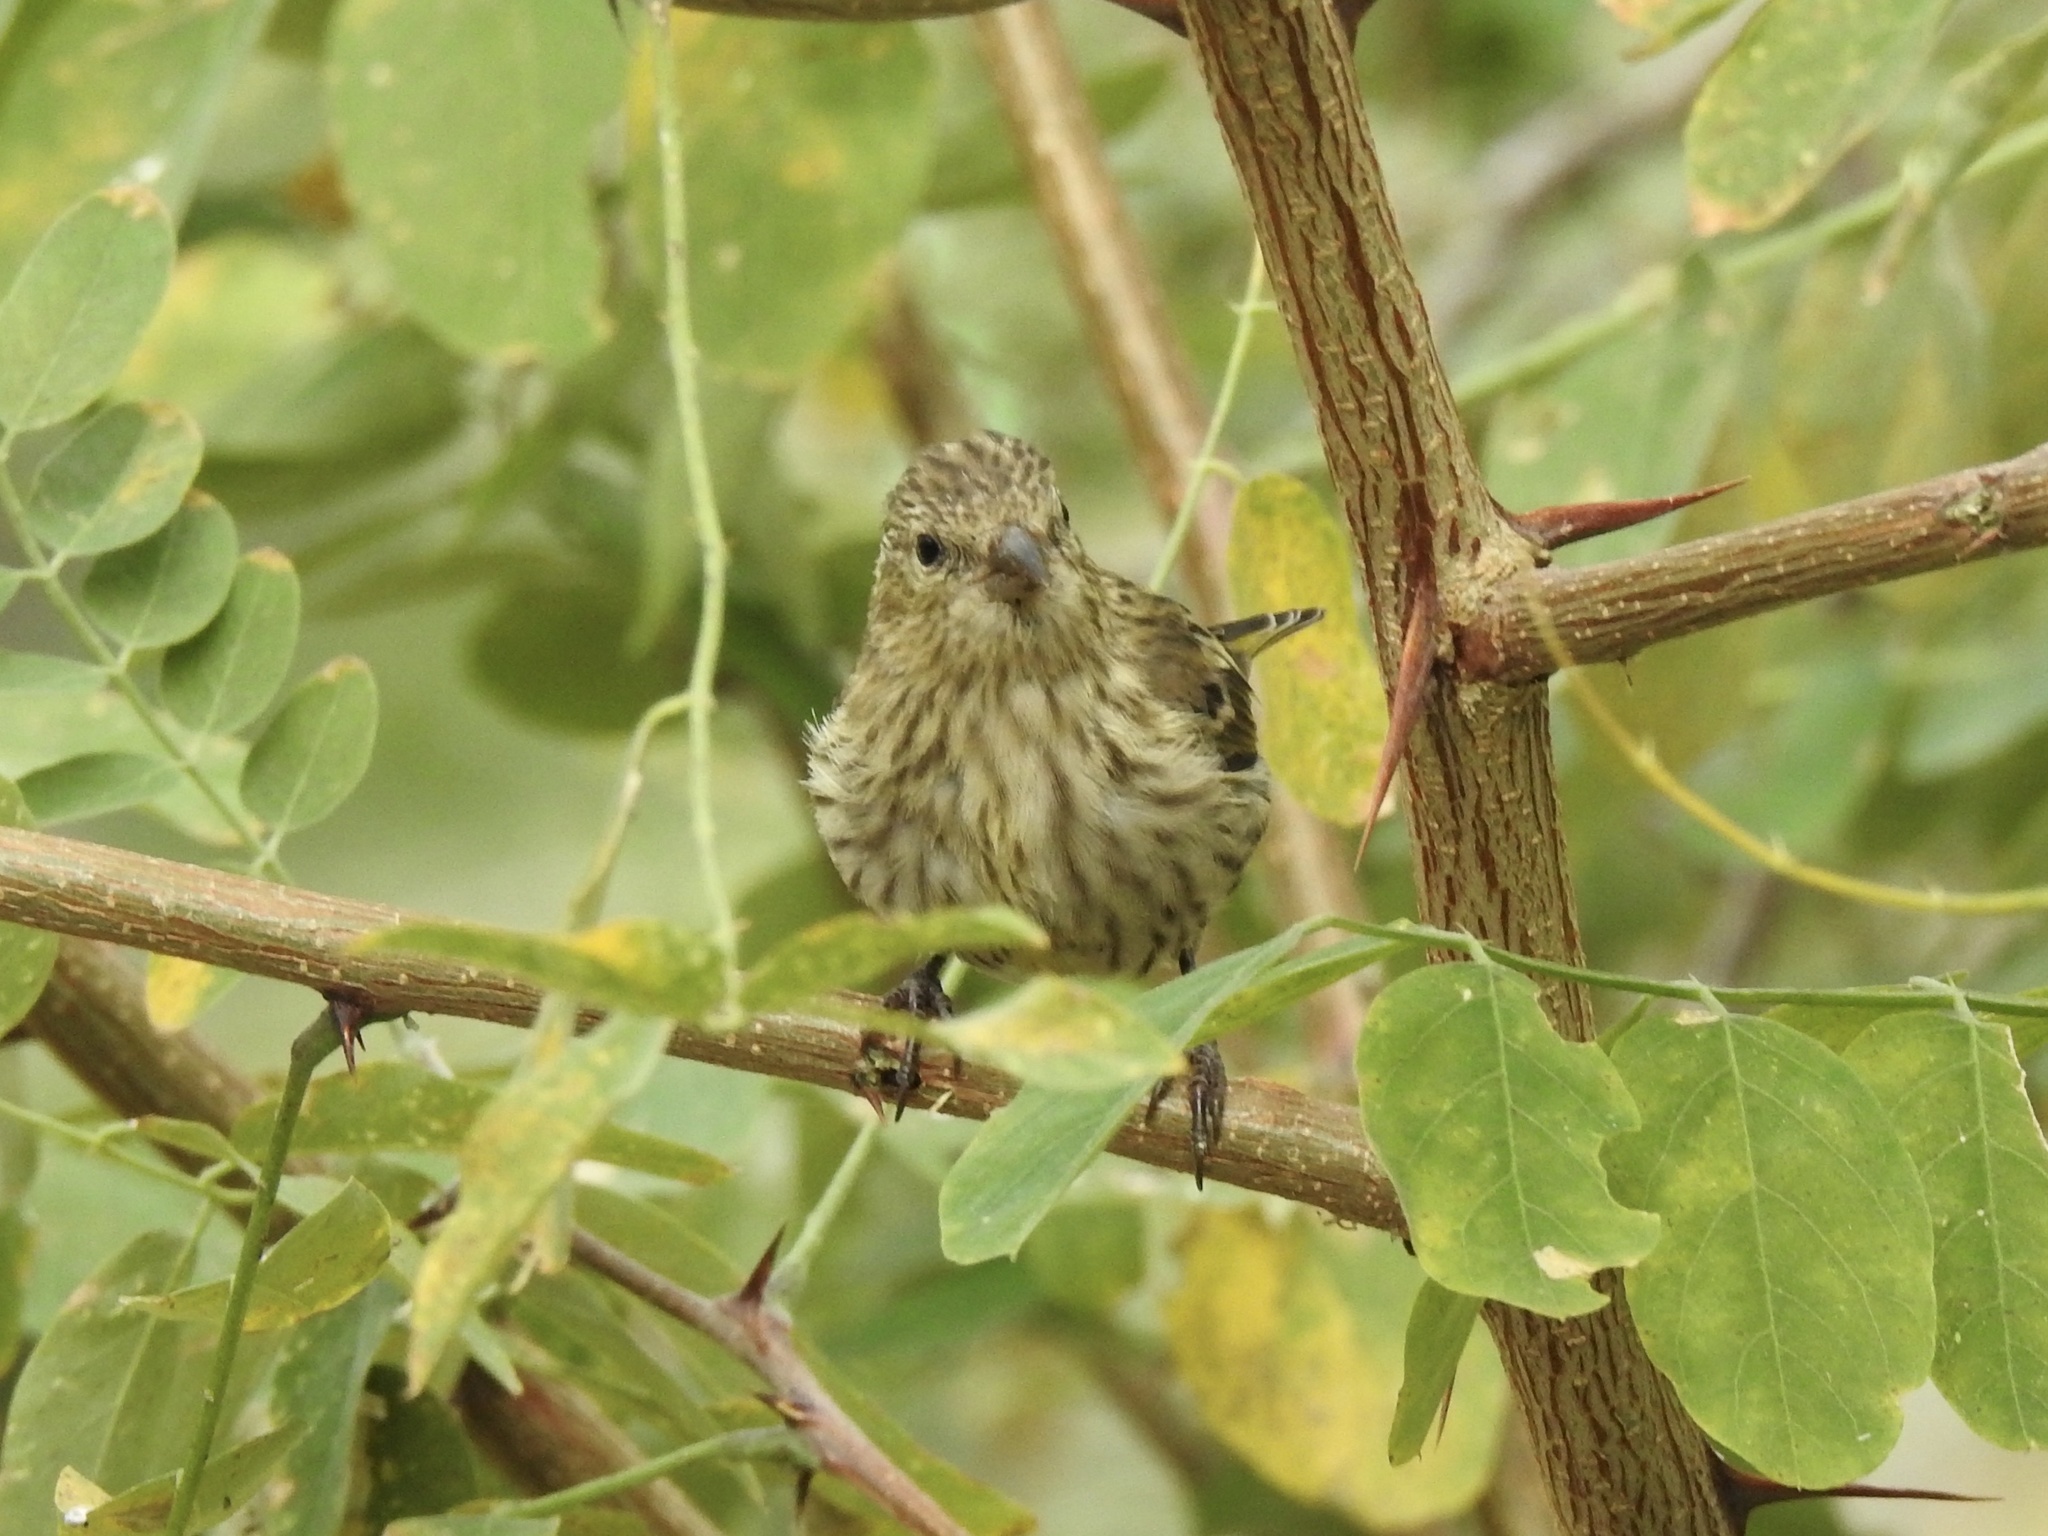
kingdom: Animalia
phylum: Chordata
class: Aves
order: Passeriformes
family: Fringillidae
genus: Spinus
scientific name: Spinus pinus
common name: Pine siskin
